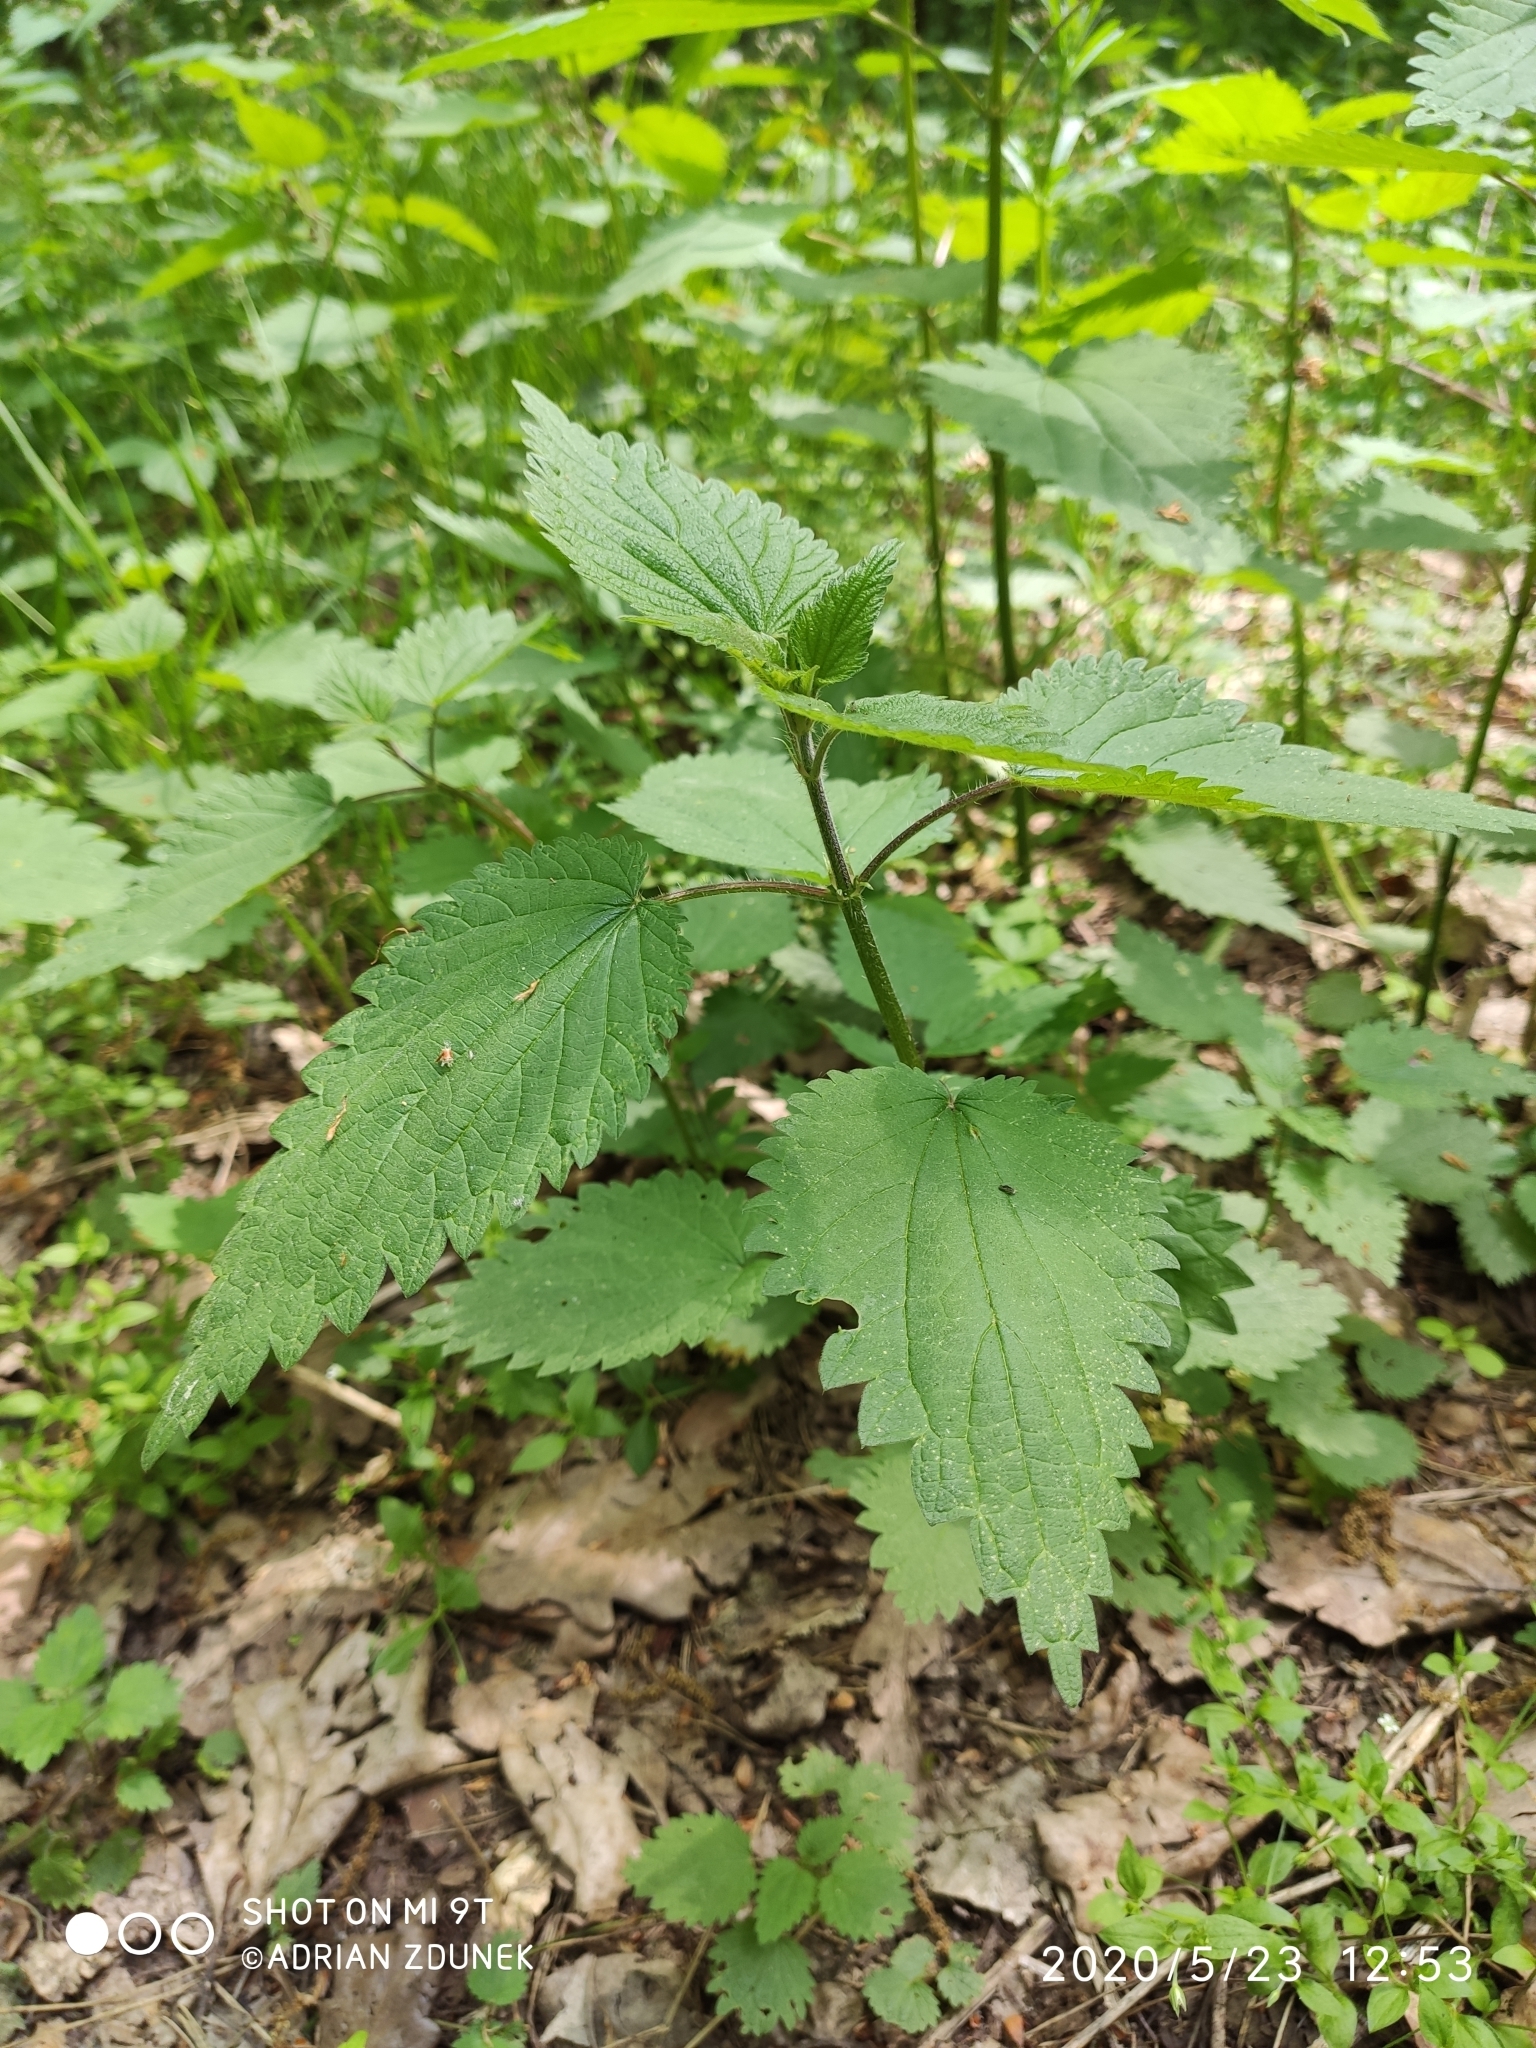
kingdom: Plantae
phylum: Tracheophyta
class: Magnoliopsida
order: Rosales
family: Urticaceae
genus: Urtica
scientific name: Urtica dioica
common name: Common nettle
